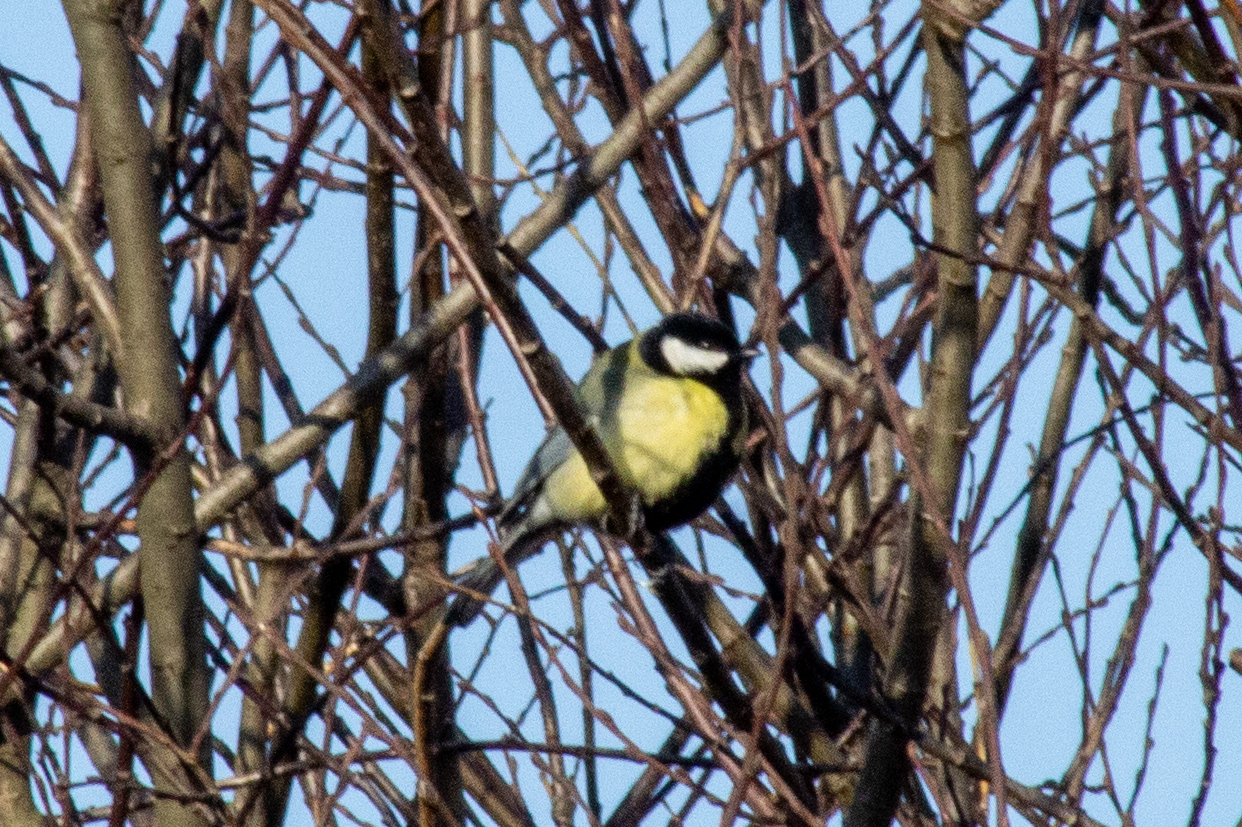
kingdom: Animalia
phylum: Chordata
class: Aves
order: Passeriformes
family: Paridae
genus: Parus
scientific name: Parus major
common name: Great tit
